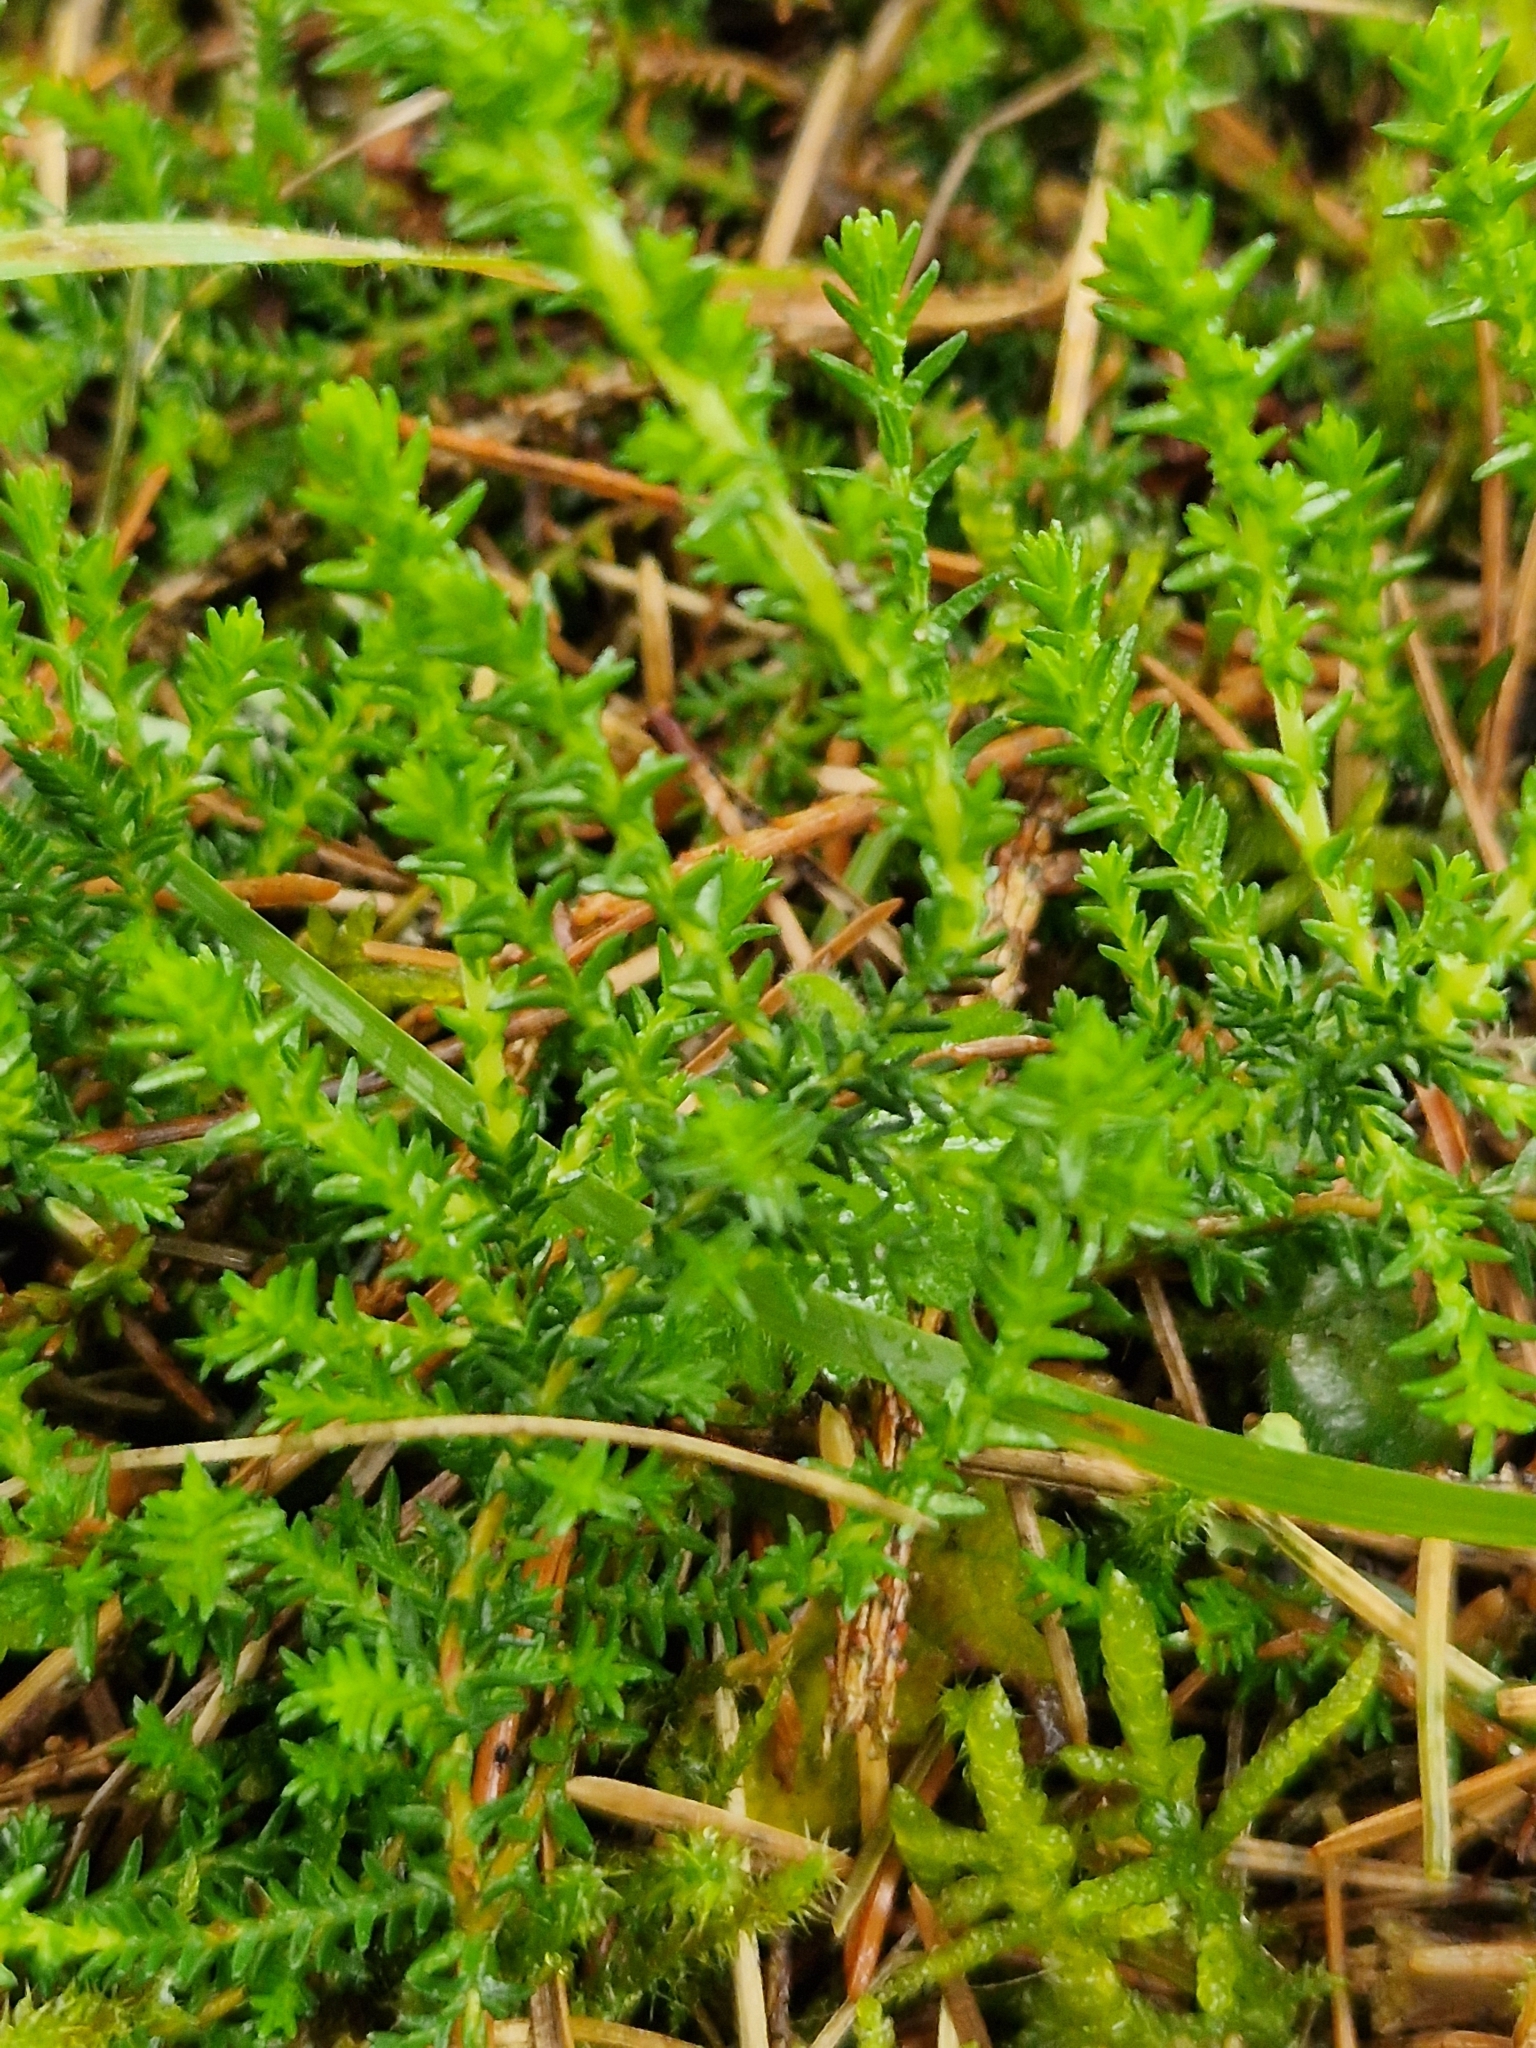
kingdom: Plantae
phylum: Tracheophyta
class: Magnoliopsida
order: Ericales
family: Ericaceae
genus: Calluna
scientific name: Calluna vulgaris
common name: Heather
